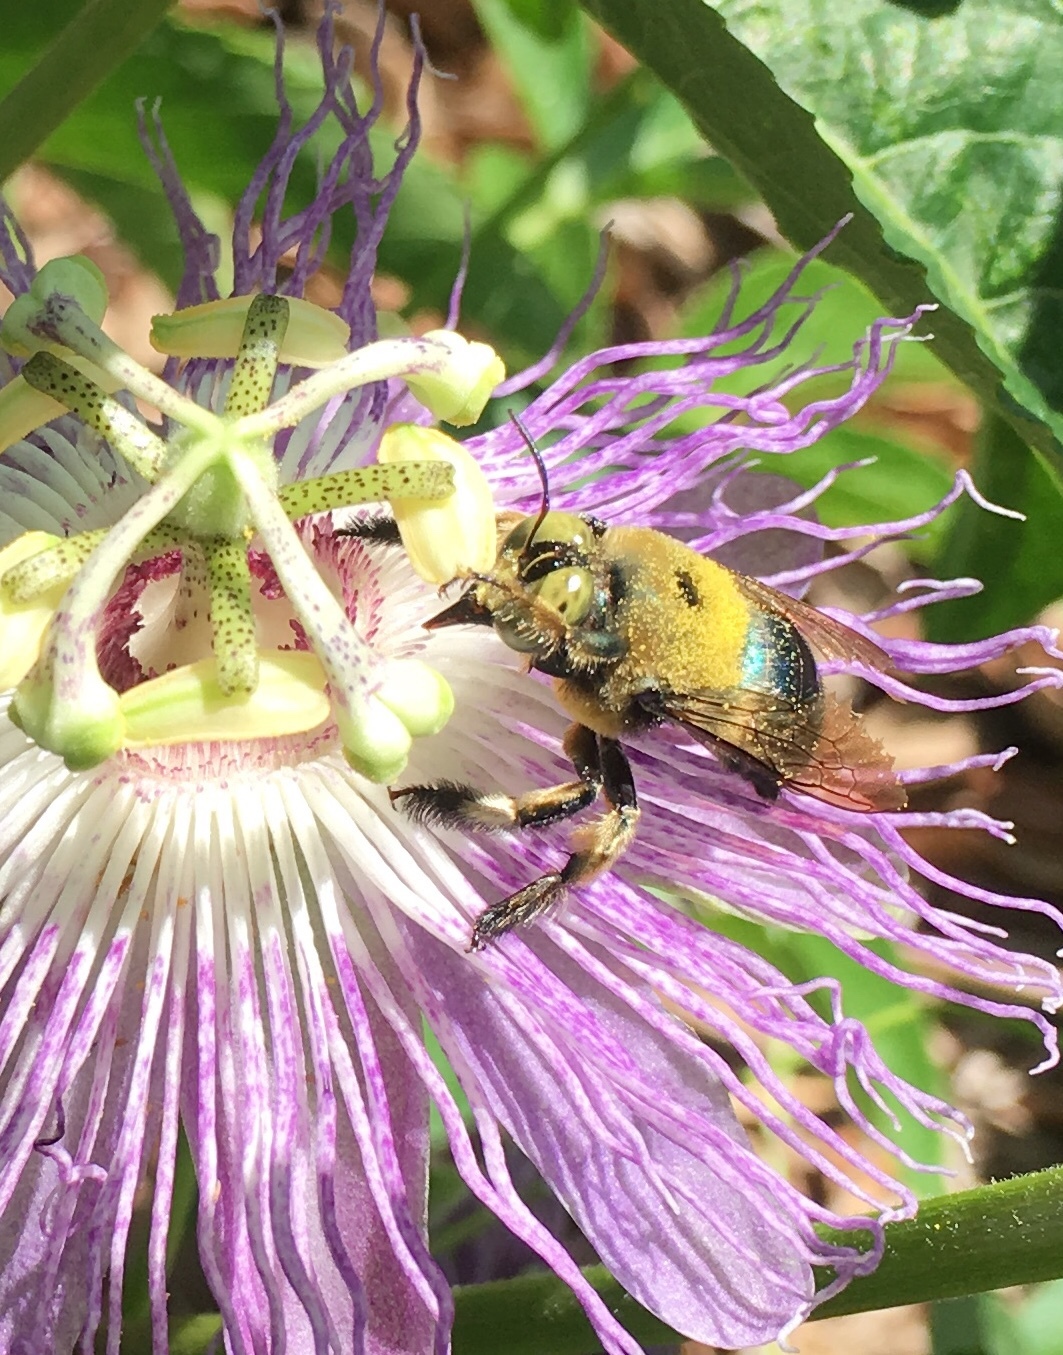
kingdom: Animalia
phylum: Arthropoda
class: Insecta
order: Hymenoptera
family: Apidae
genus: Xylocopa
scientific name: Xylocopa micans
